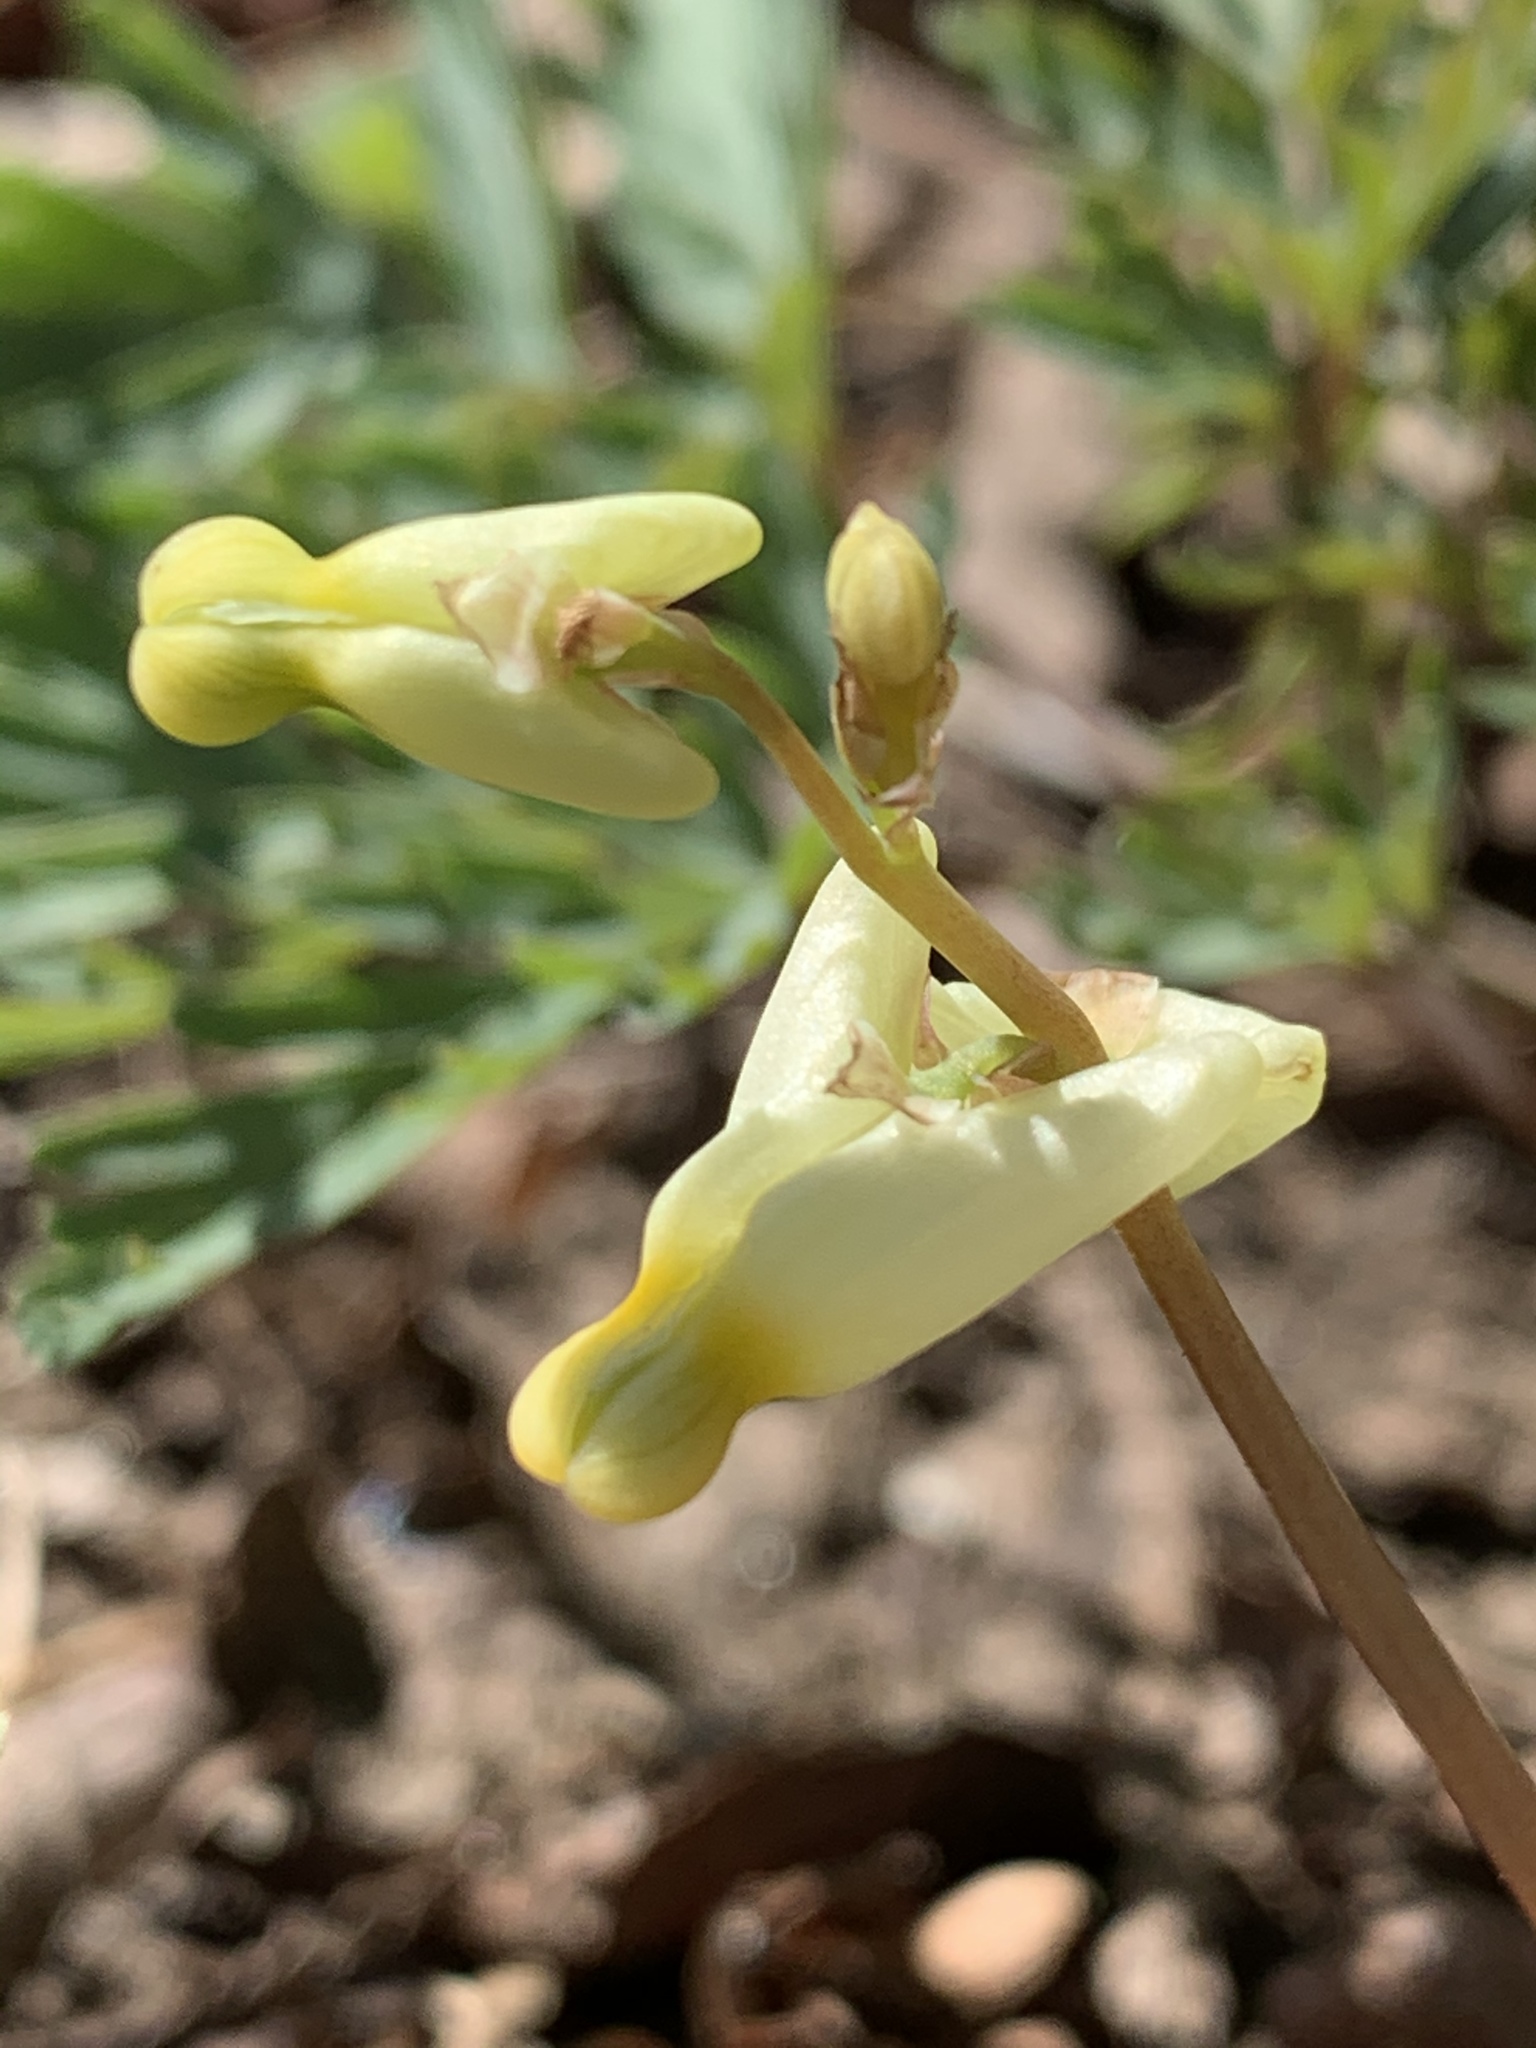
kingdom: Plantae
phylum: Tracheophyta
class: Magnoliopsida
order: Ranunculales
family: Papaveraceae
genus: Dicentra
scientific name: Dicentra cucullaria
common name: Dutchman's breeches
